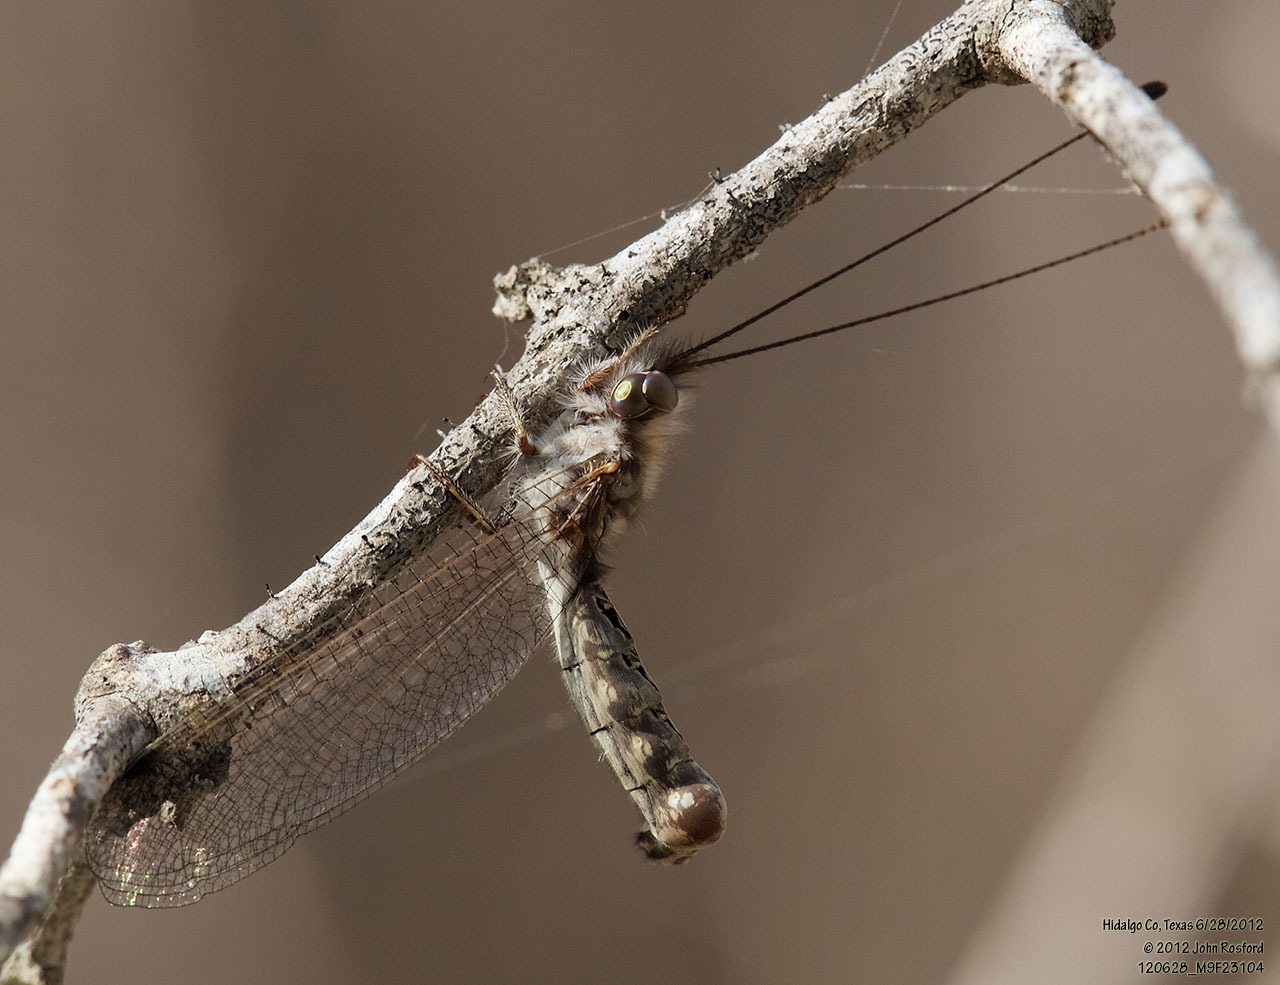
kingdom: Animalia
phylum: Arthropoda
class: Insecta
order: Neuroptera
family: Ascalaphidae
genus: Ululodes
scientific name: Ululodes macleayanus
